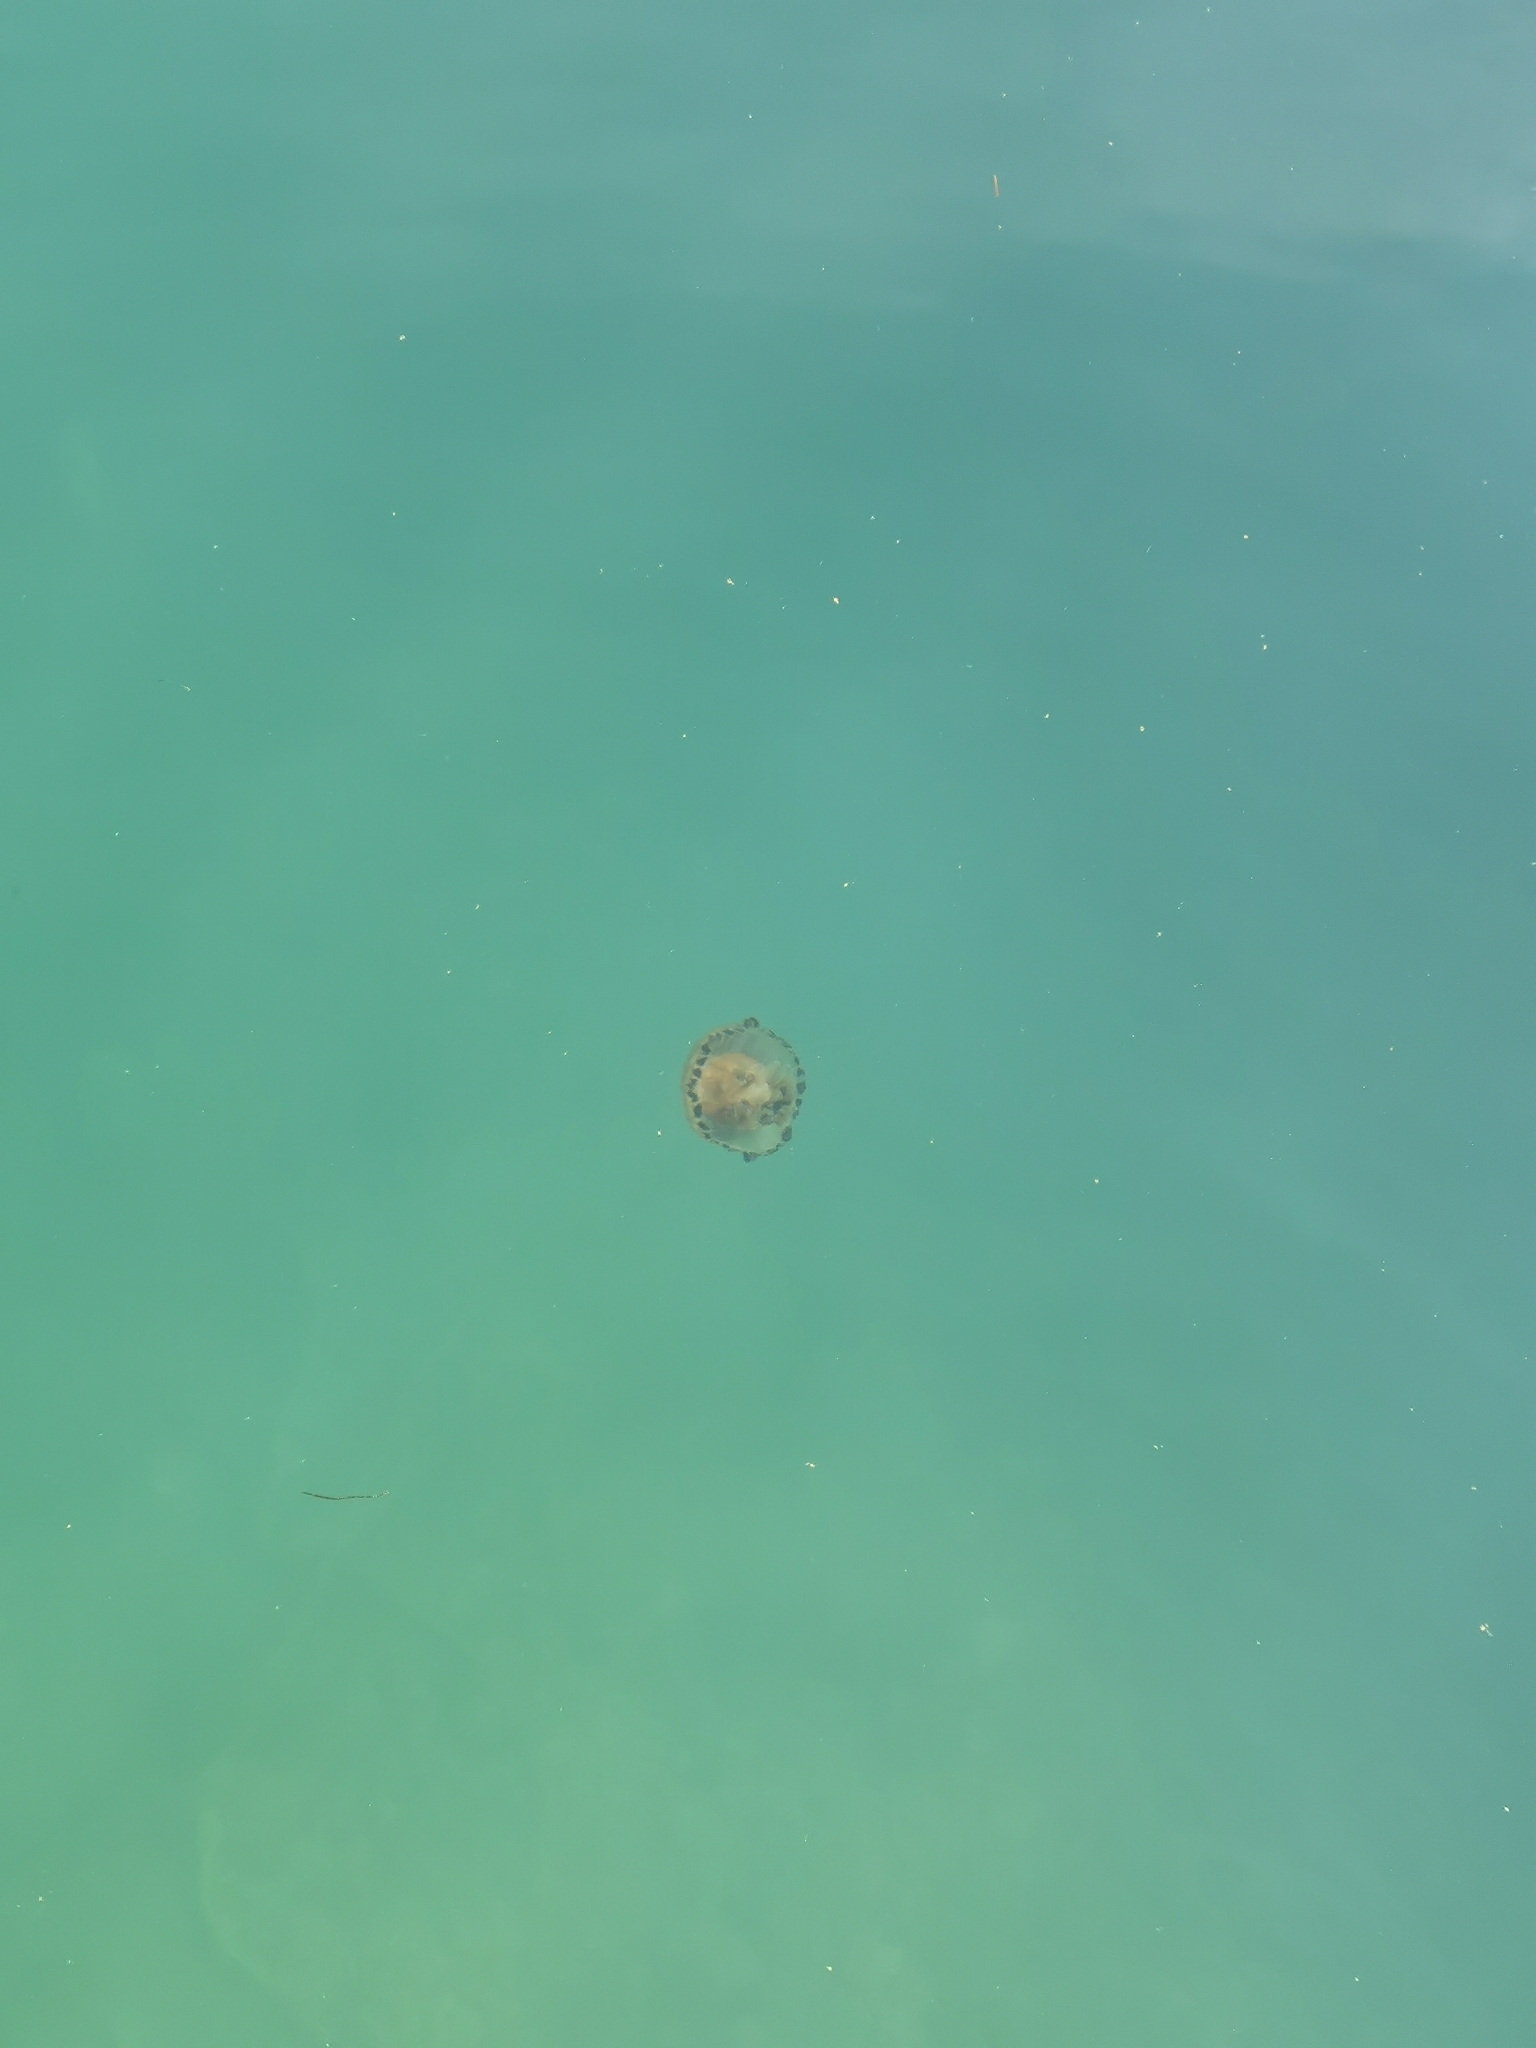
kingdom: Animalia
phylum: Cnidaria
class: Scyphozoa
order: Semaeostomeae
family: Pelagiidae
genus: Chrysaora
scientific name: Chrysaora hysoscella
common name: Compass jellyfish
